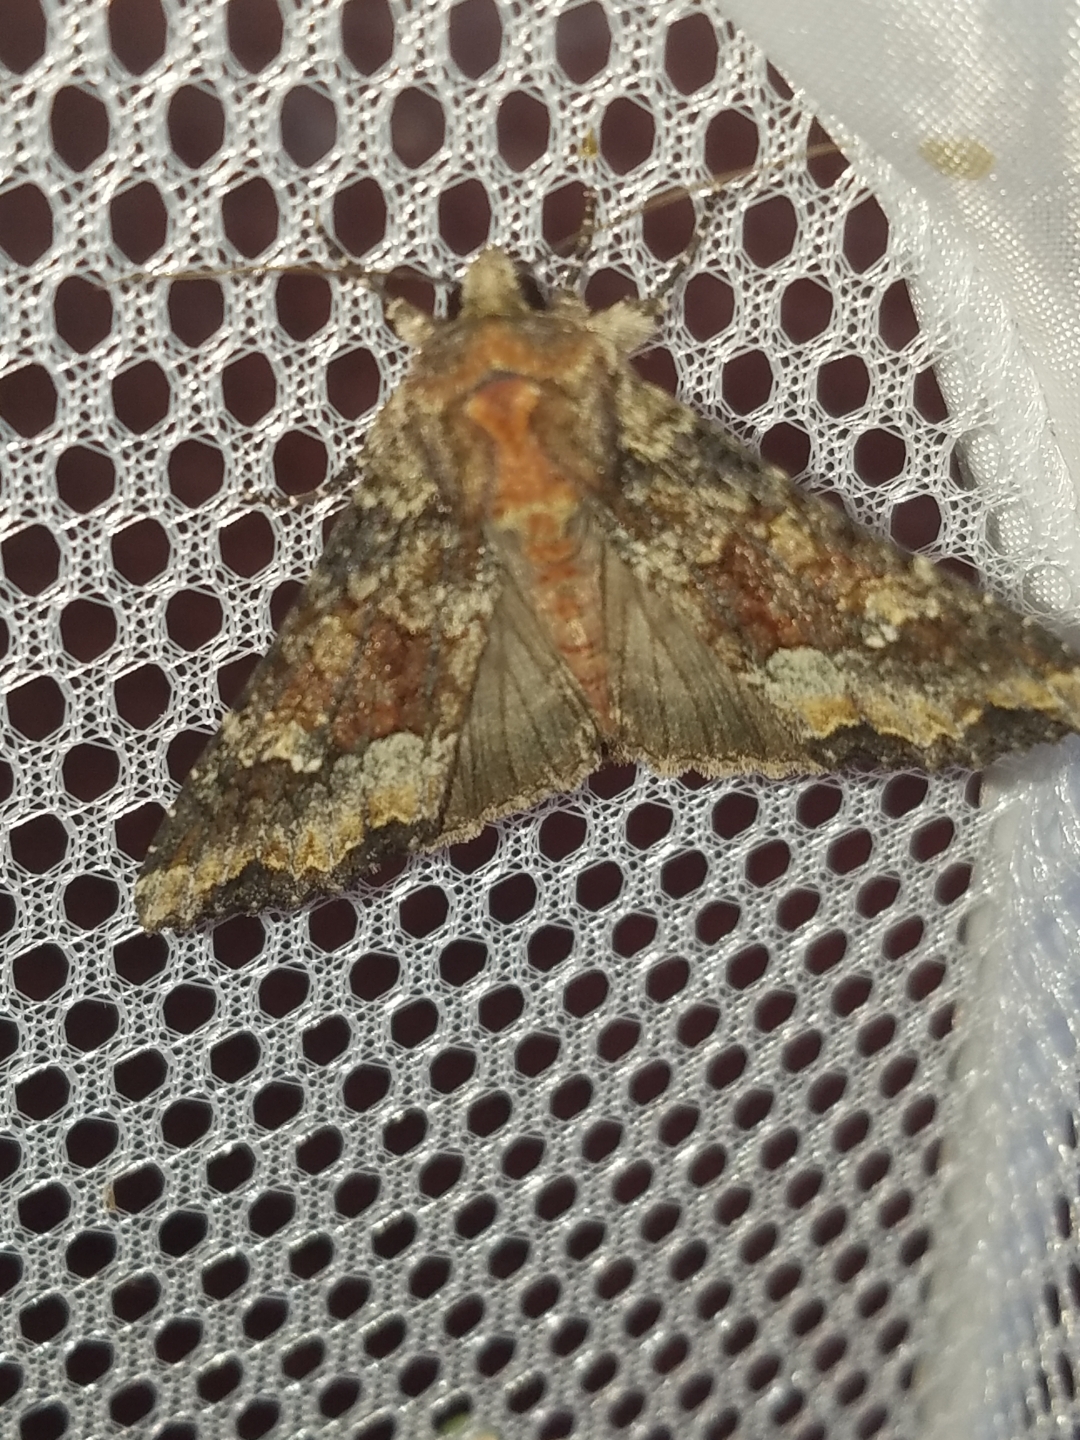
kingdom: Animalia
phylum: Arthropoda
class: Insecta
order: Lepidoptera
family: Noctuidae
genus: Apamea
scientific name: Apamea amputatrix
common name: Yellow-headed cutworm moth
